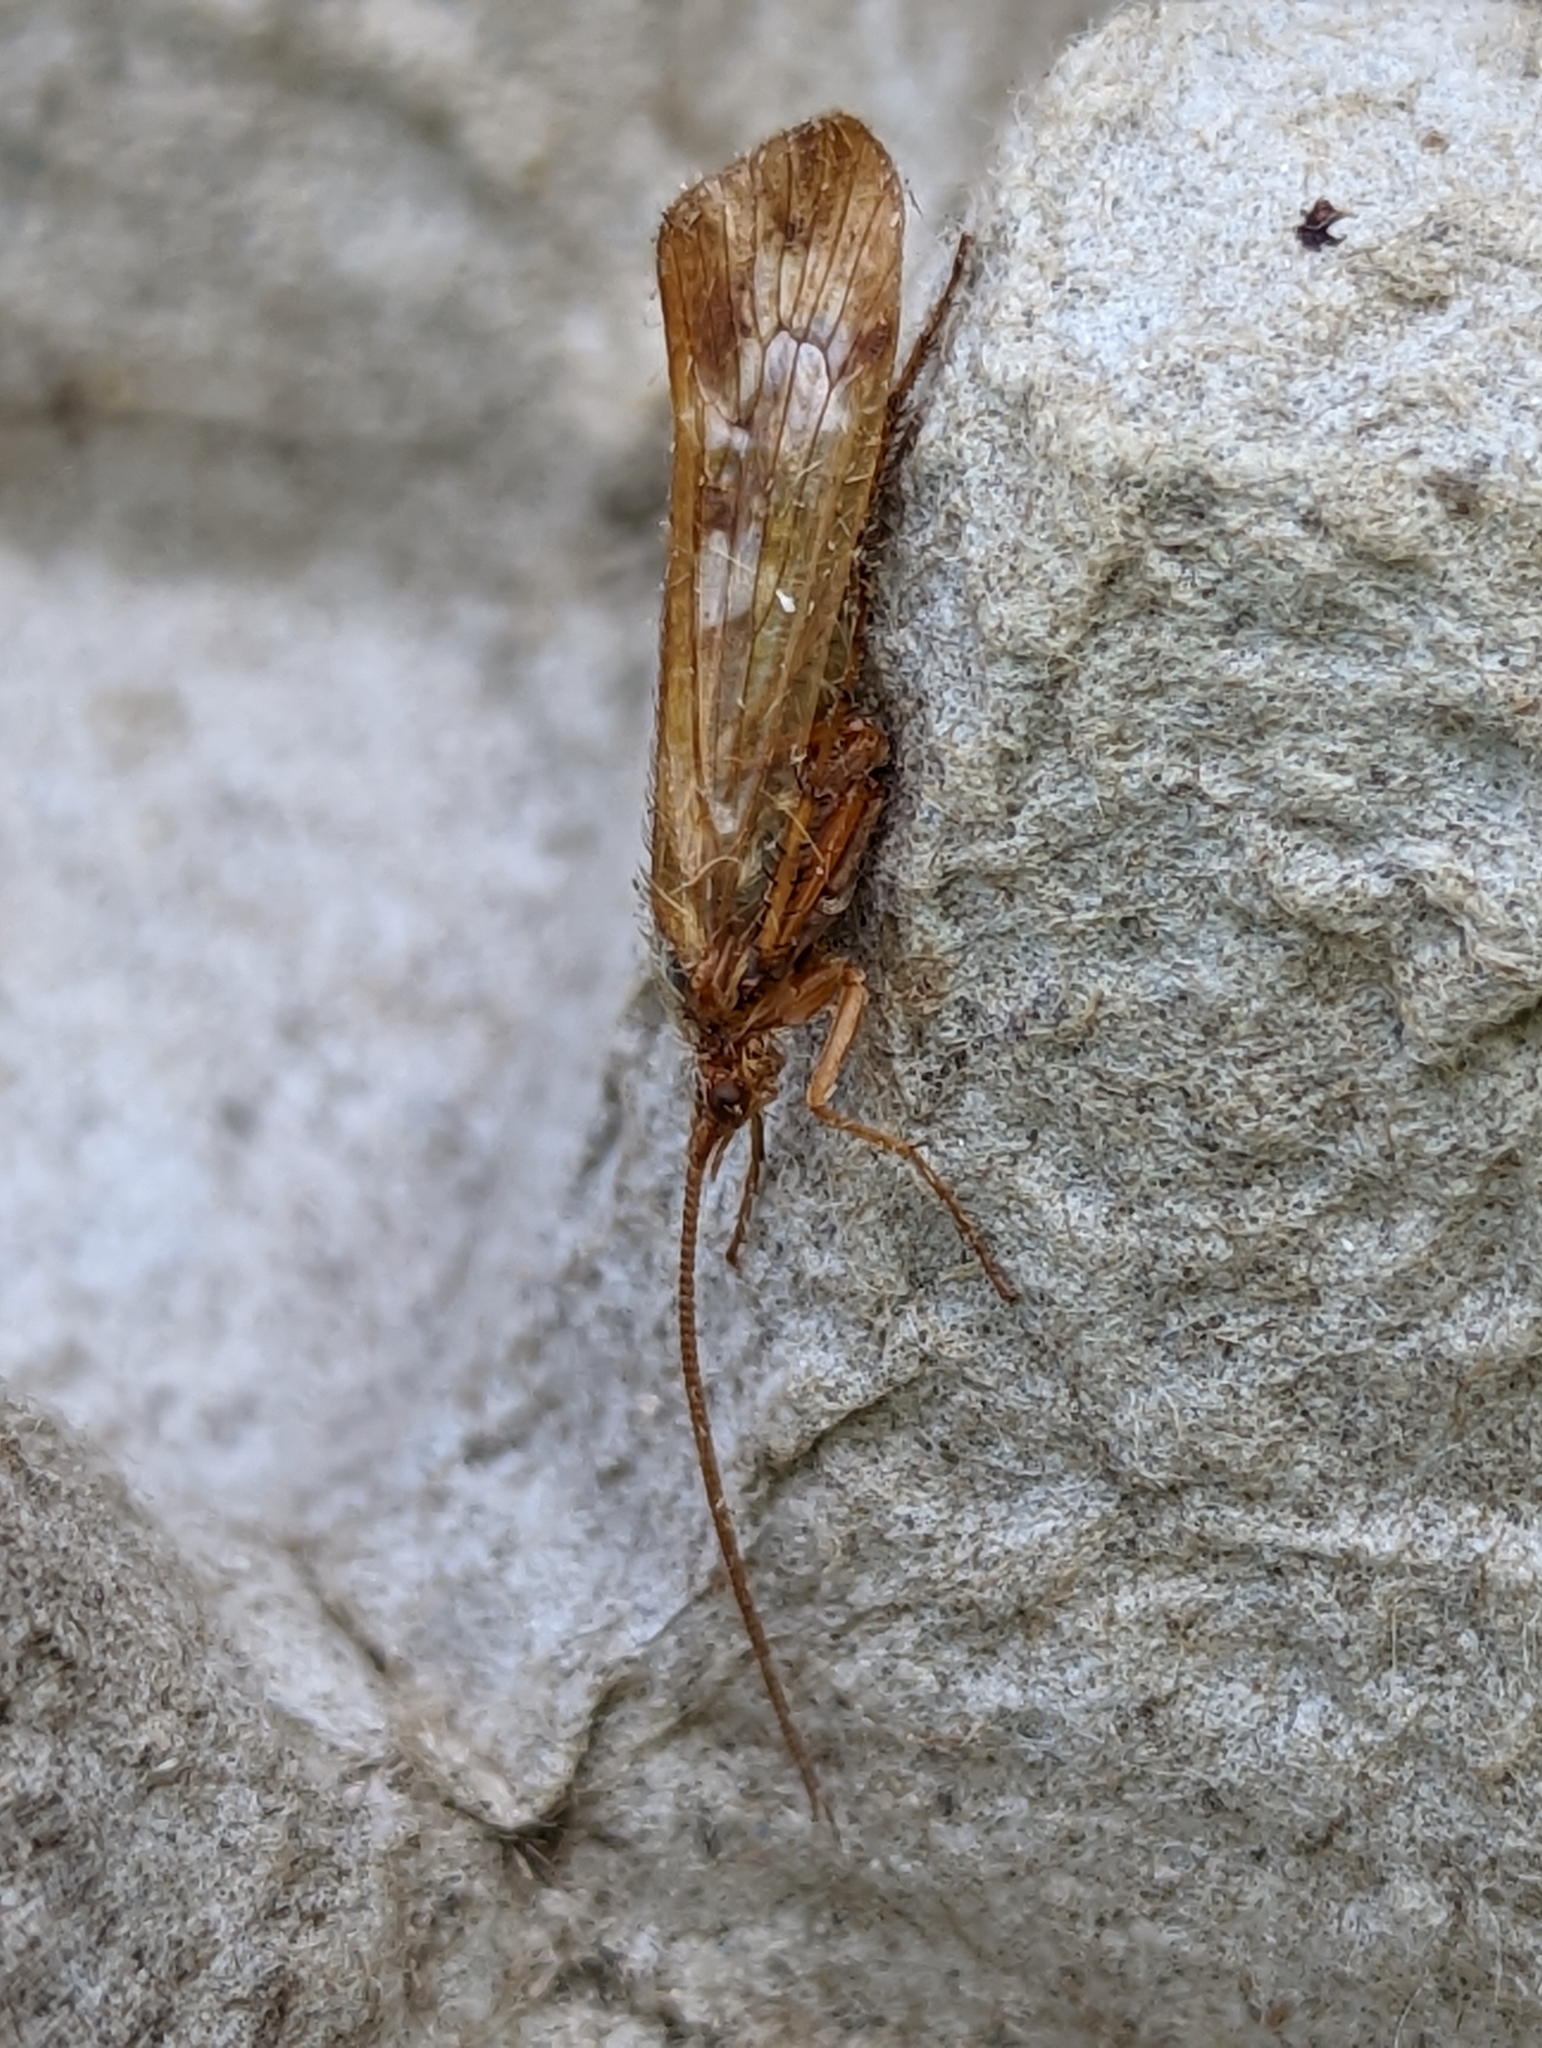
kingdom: Animalia
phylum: Arthropoda
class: Insecta
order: Trichoptera
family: Limnephilidae
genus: Limnephilus
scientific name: Limnephilus lunatus
